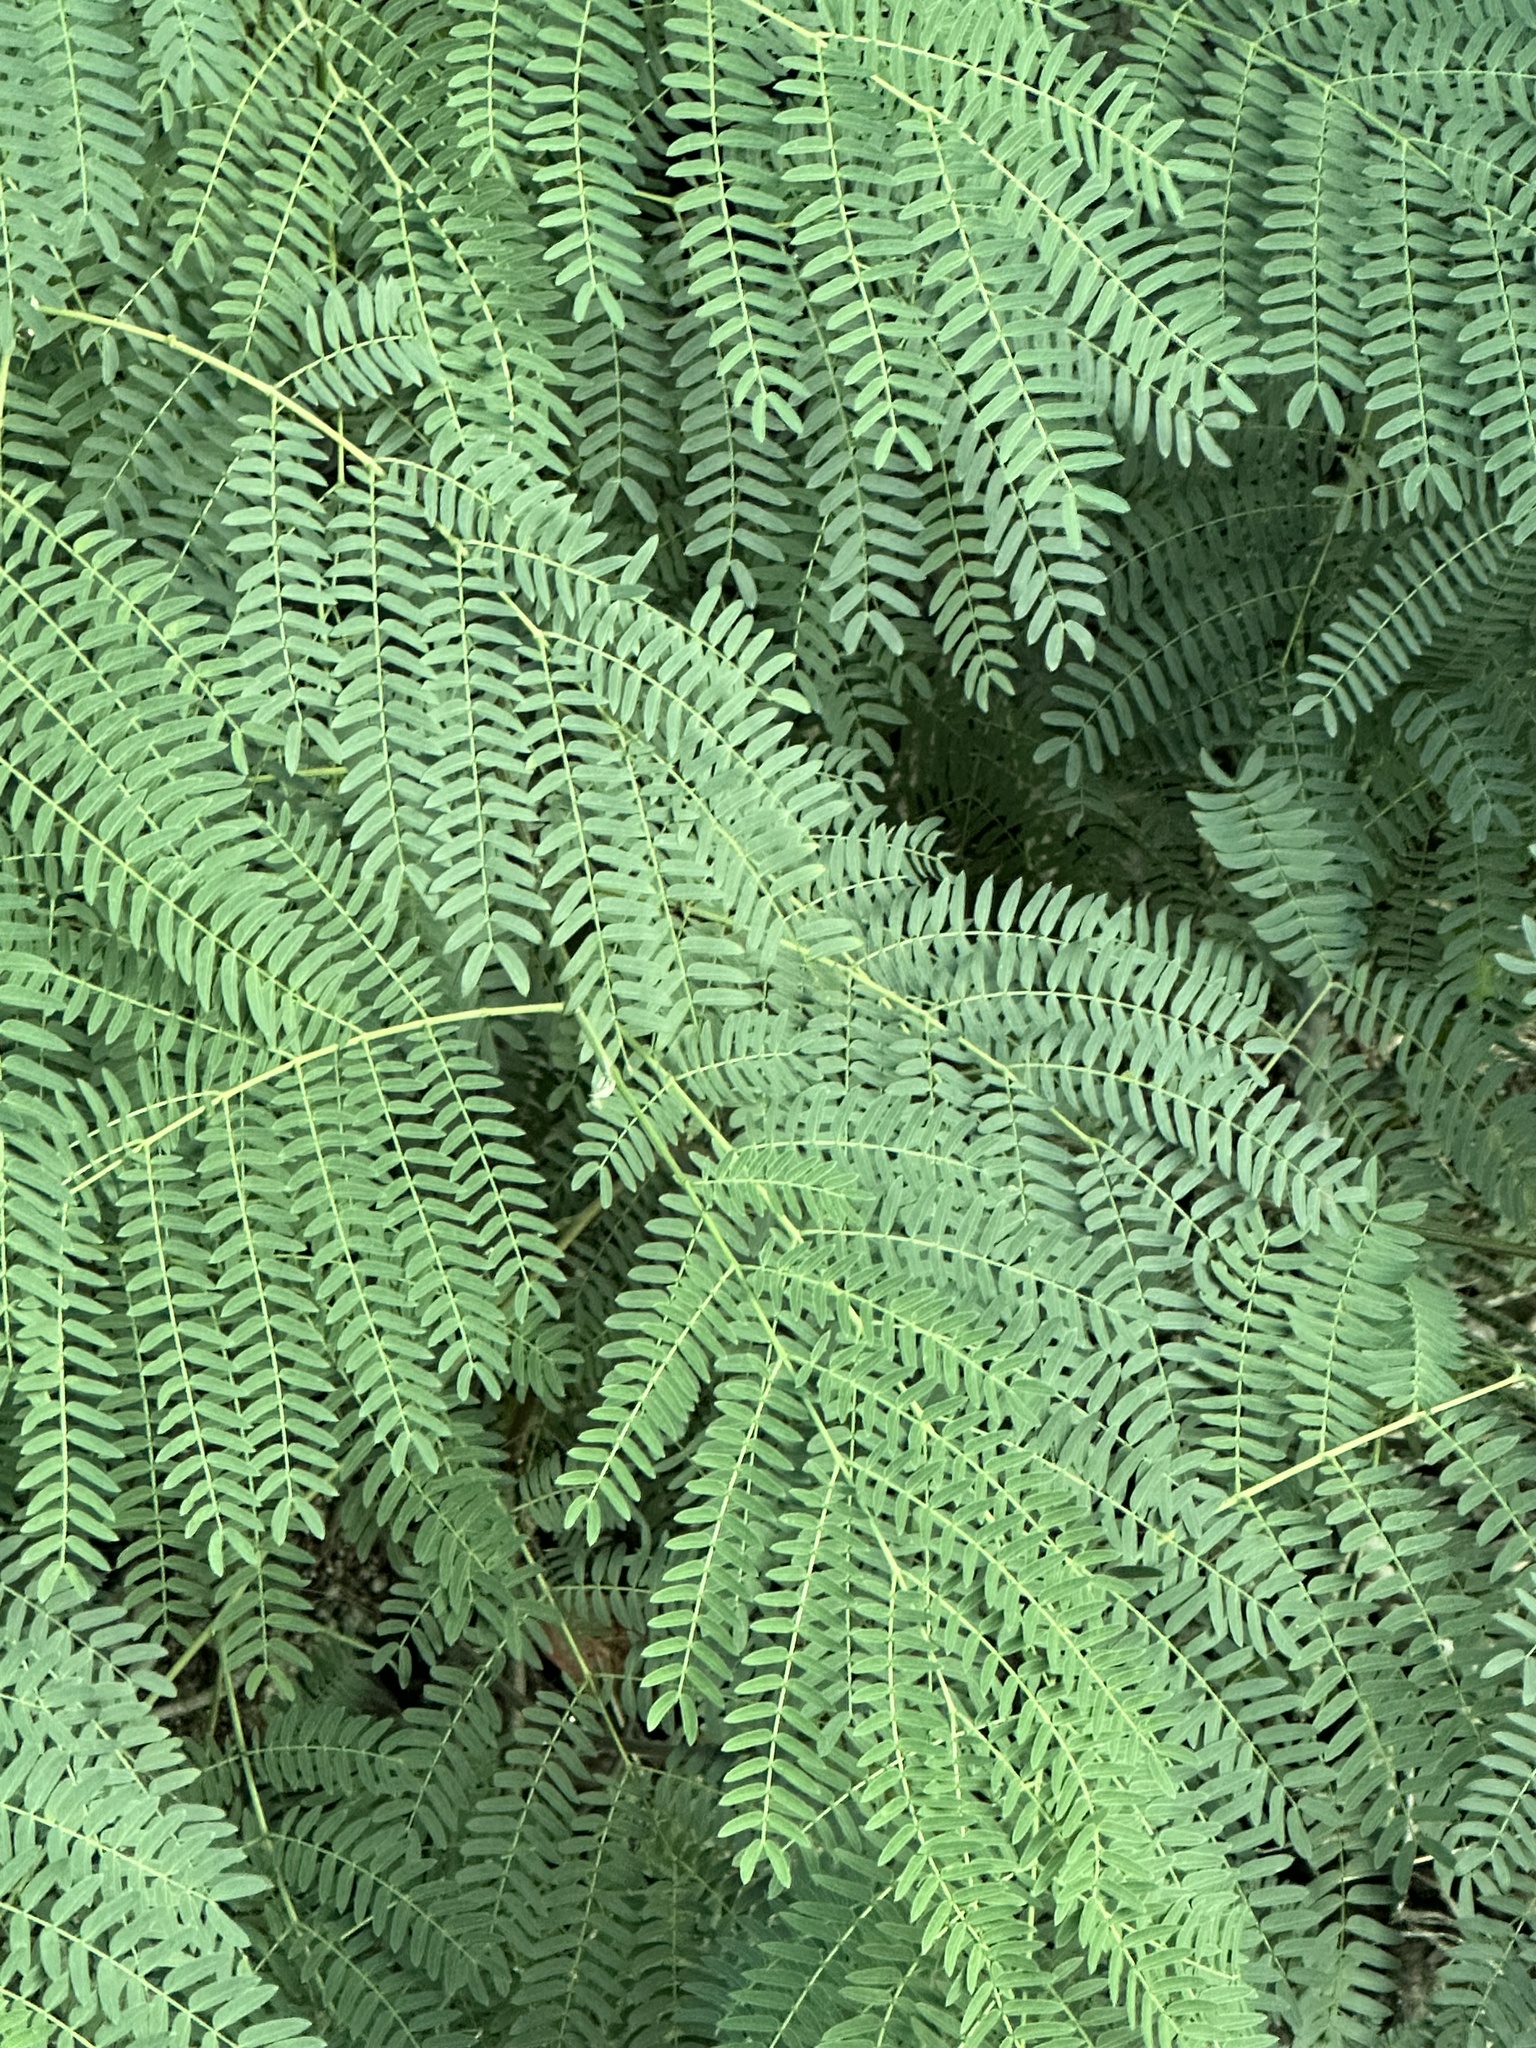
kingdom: Plantae
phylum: Tracheophyta
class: Magnoliopsida
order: Fabales
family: Fabaceae
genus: Leucaena
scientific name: Leucaena leucocephala
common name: White leadtree
